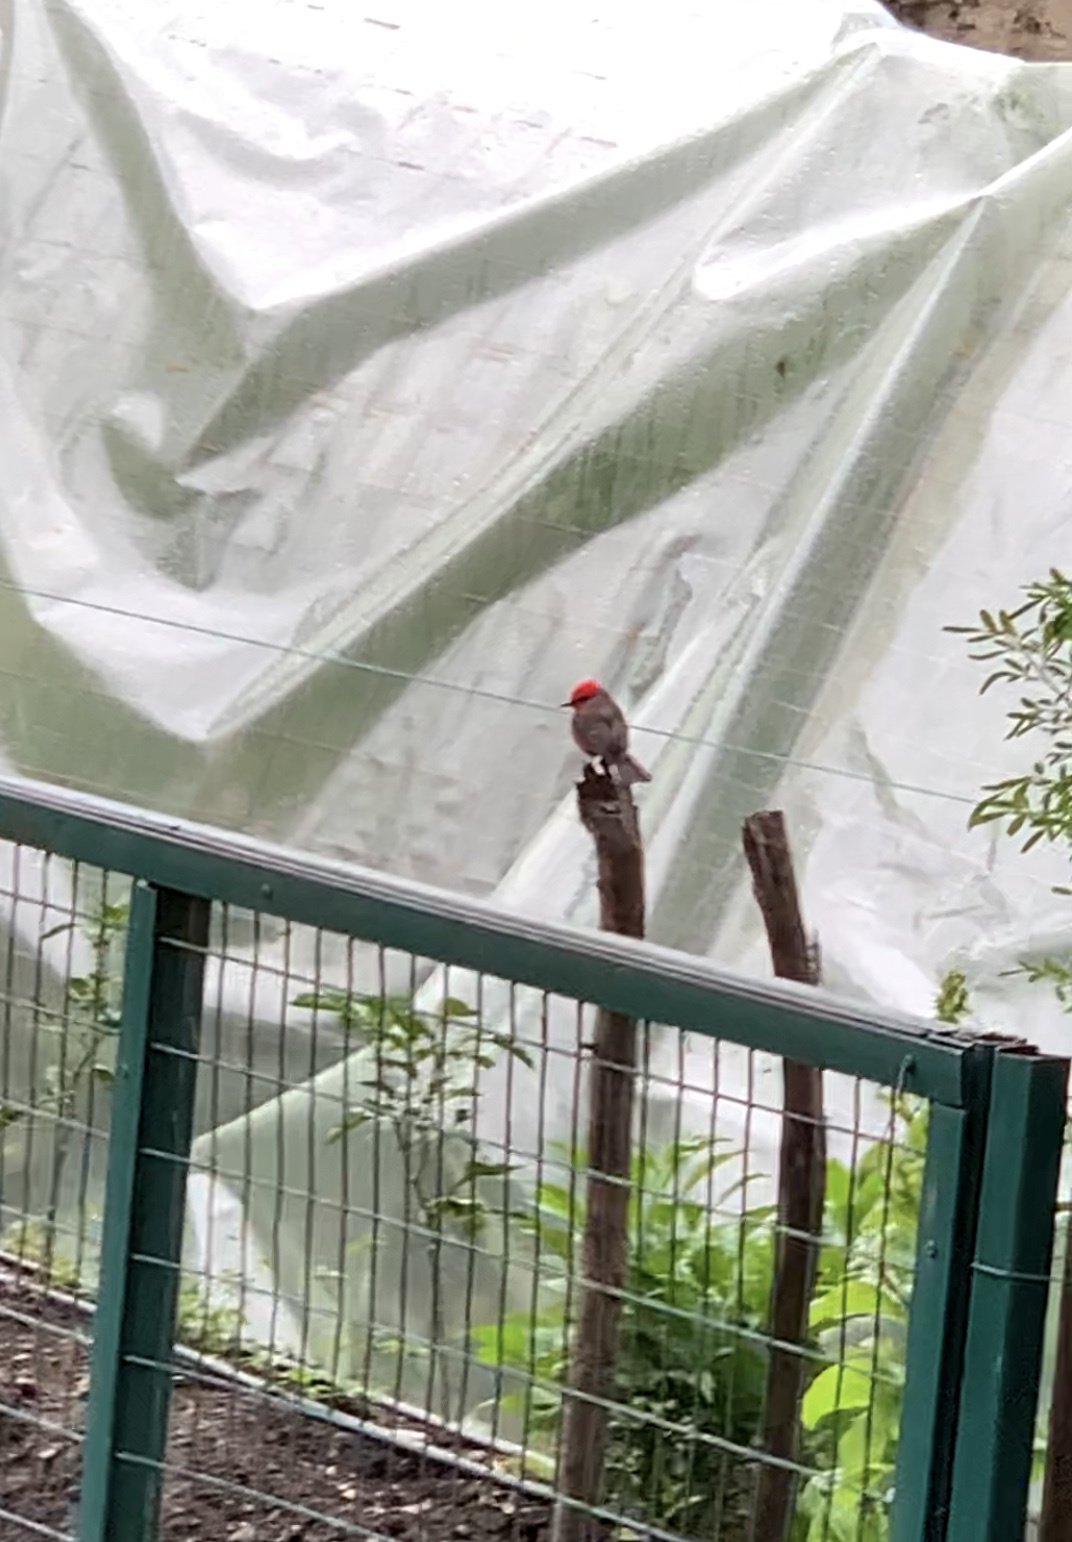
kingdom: Animalia
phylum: Chordata
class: Aves
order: Passeriformes
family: Tyrannidae
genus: Pyrocephalus
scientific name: Pyrocephalus rubinus
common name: Vermilion flycatcher
